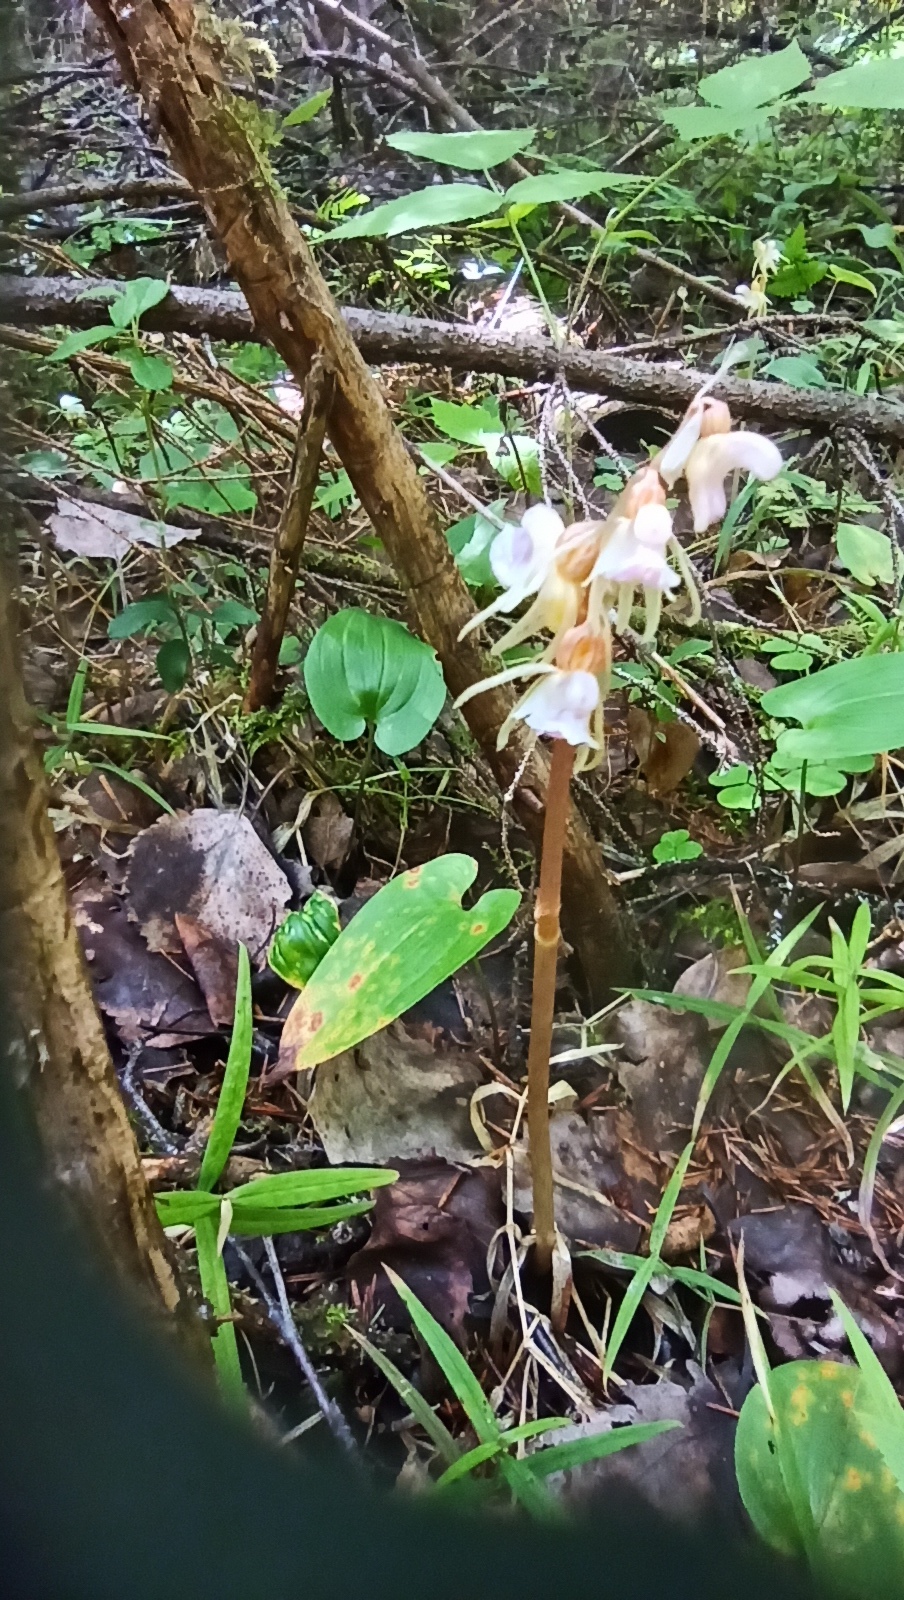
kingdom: Plantae
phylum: Tracheophyta
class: Liliopsida
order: Asparagales
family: Orchidaceae
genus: Epipogium
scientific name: Epipogium aphyllum
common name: Ghost orchid
